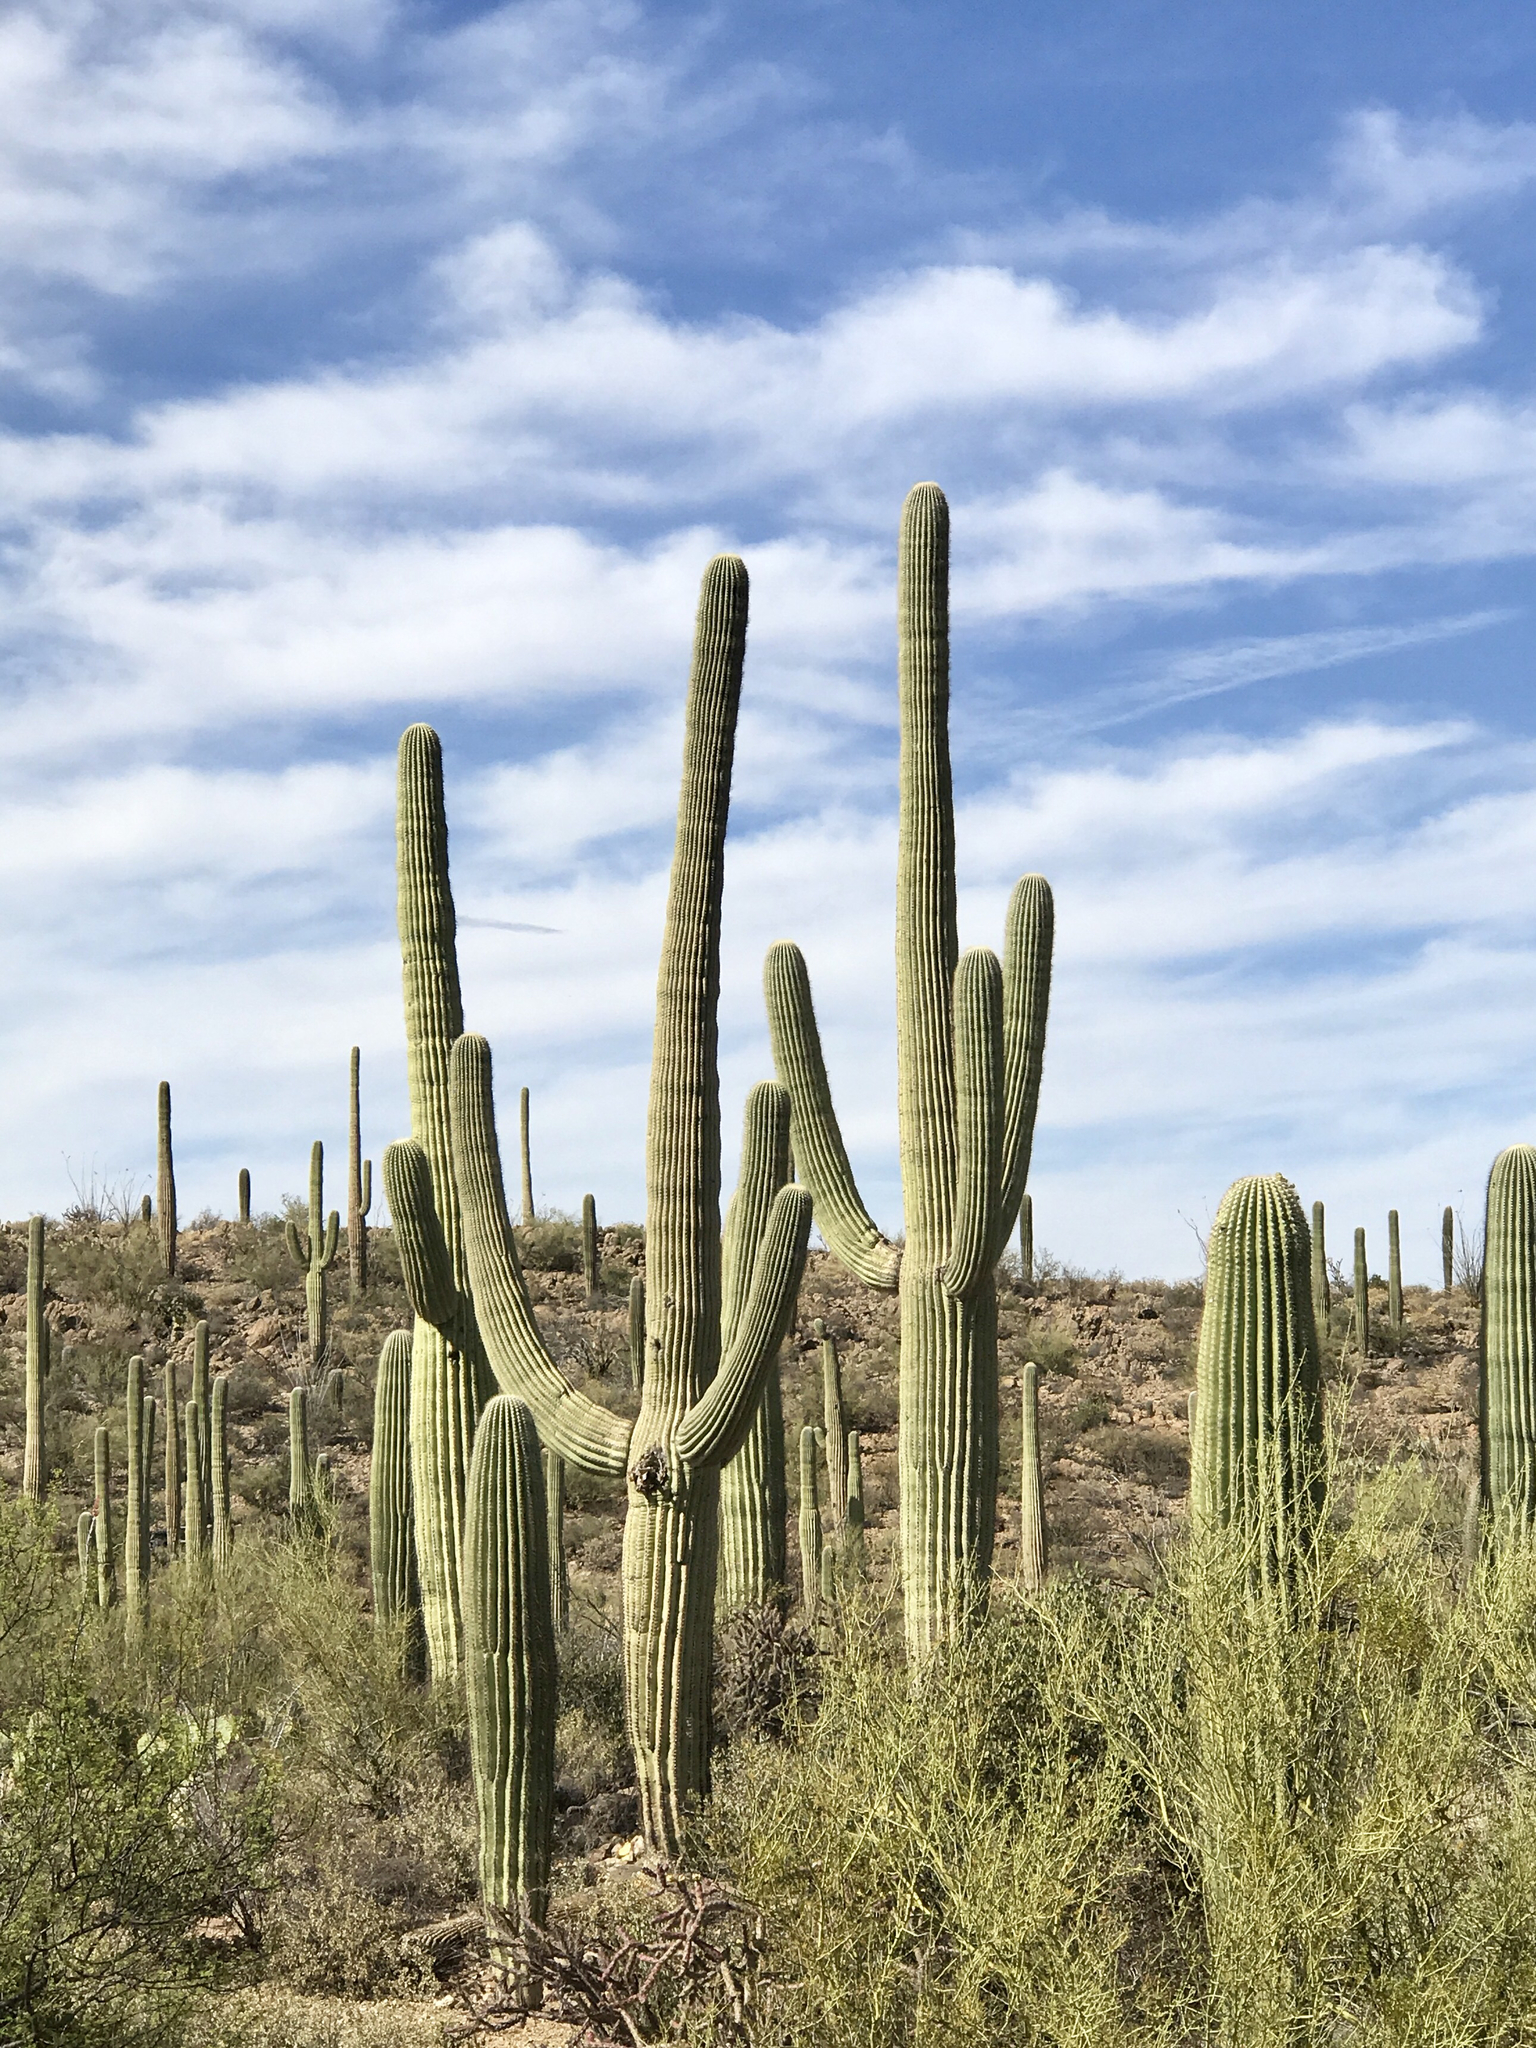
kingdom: Plantae
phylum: Tracheophyta
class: Magnoliopsida
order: Caryophyllales
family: Cactaceae
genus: Carnegiea
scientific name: Carnegiea gigantea
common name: Saguaro
